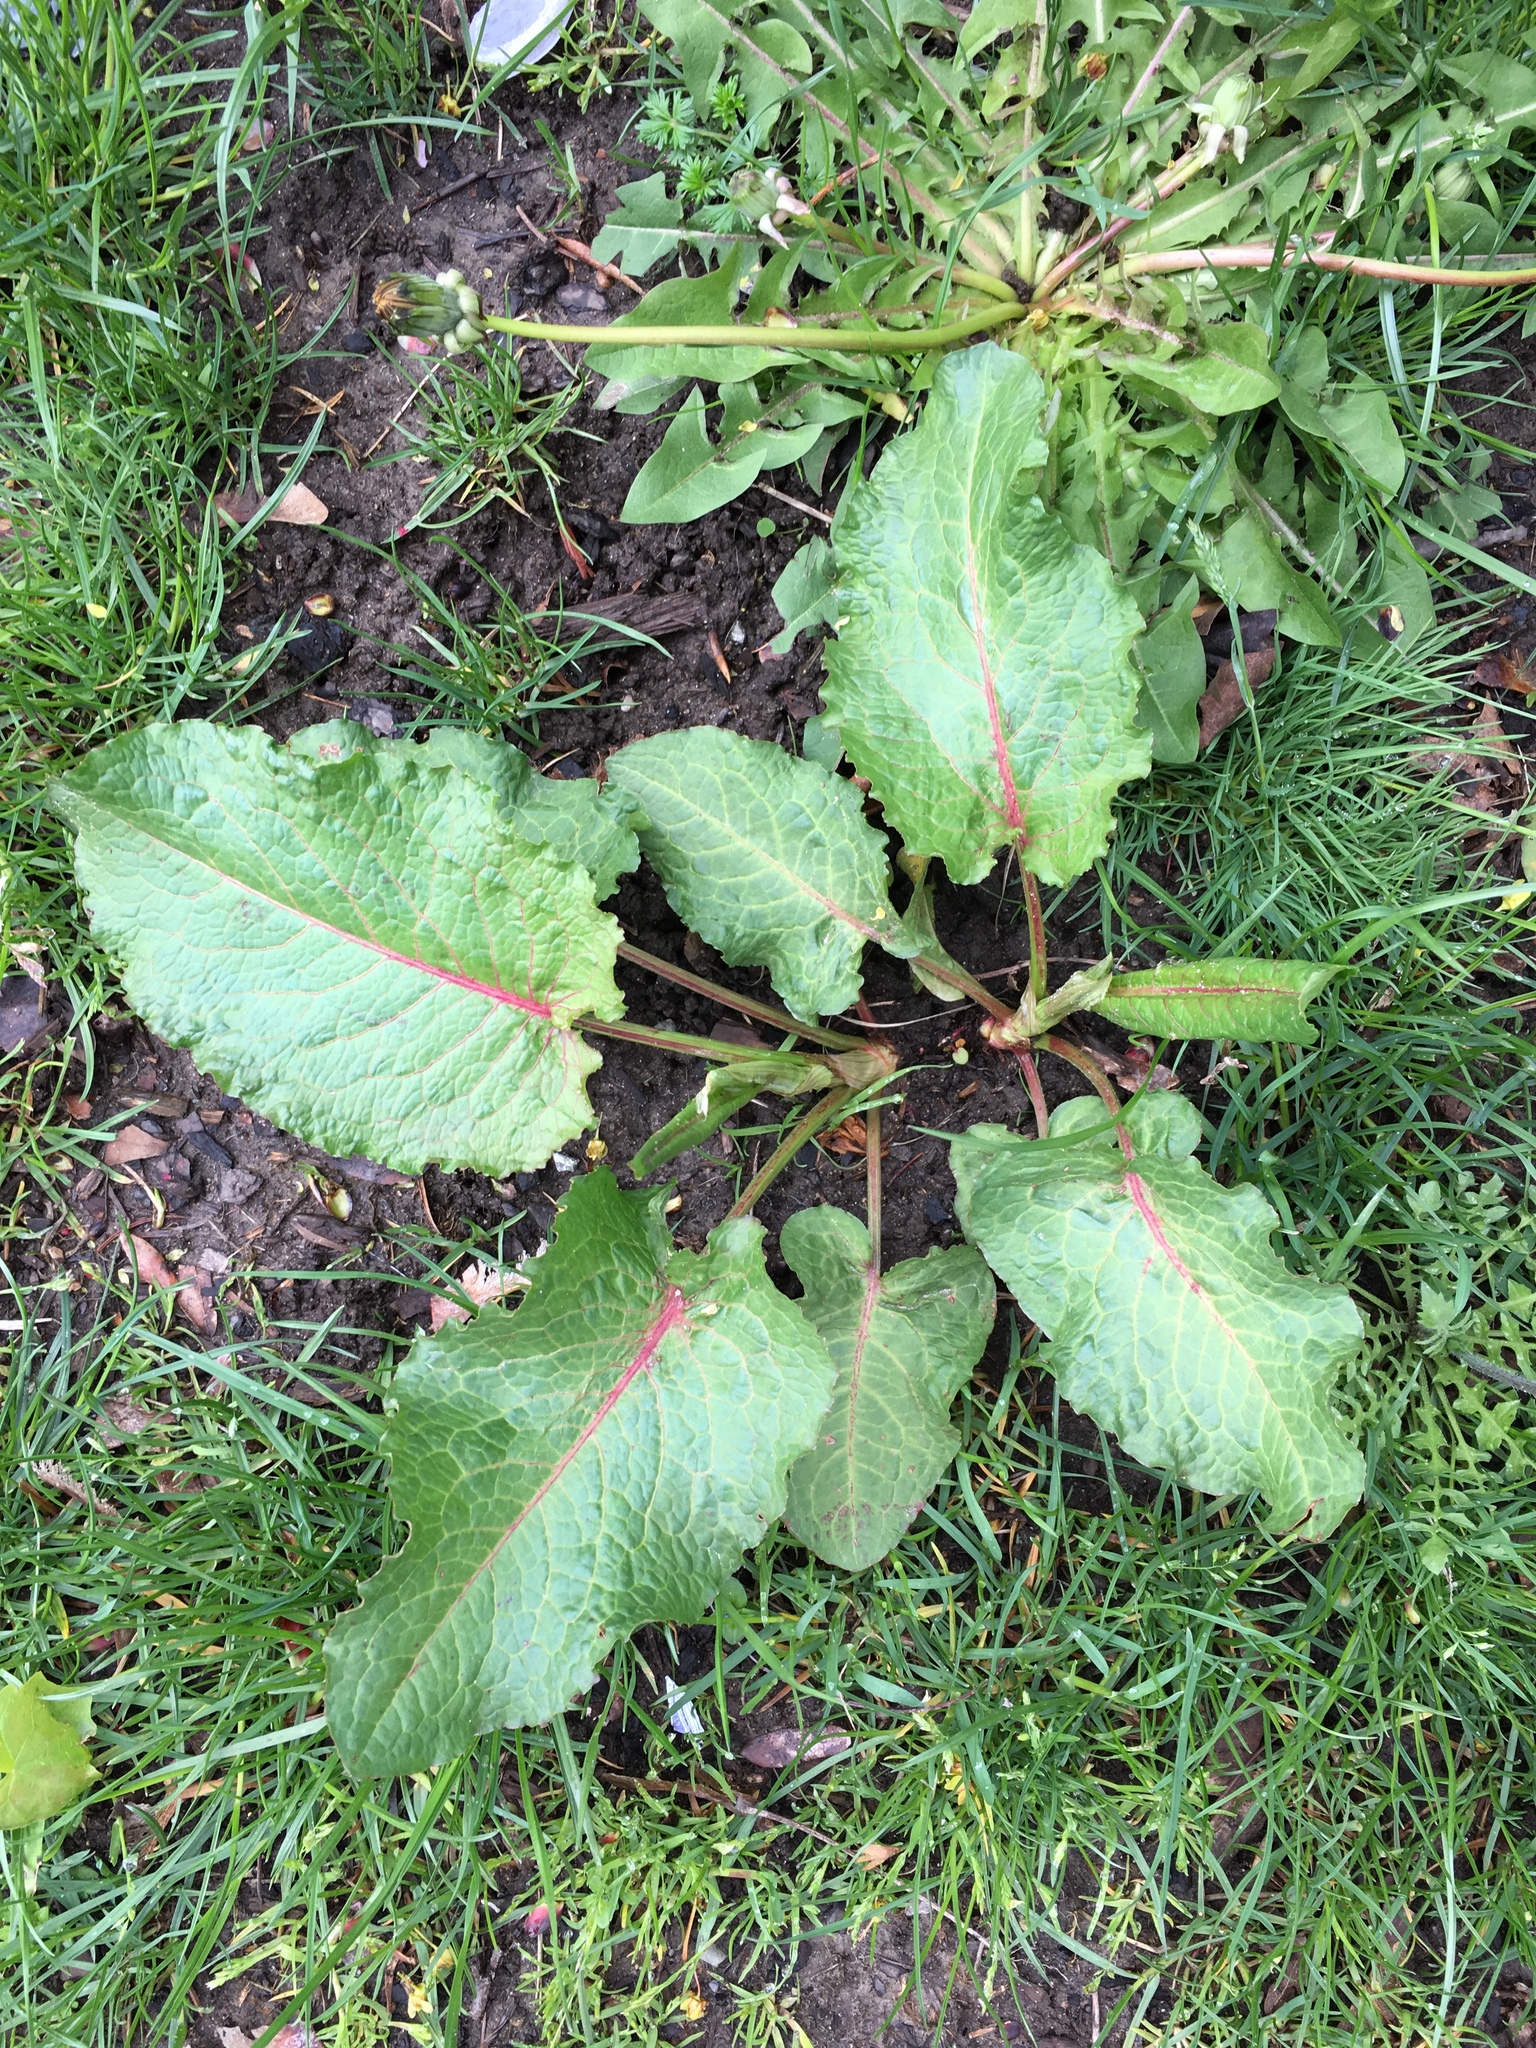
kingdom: Plantae
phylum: Tracheophyta
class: Magnoliopsida
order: Caryophyllales
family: Polygonaceae
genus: Rumex
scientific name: Rumex obtusifolius
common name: Bitter dock
